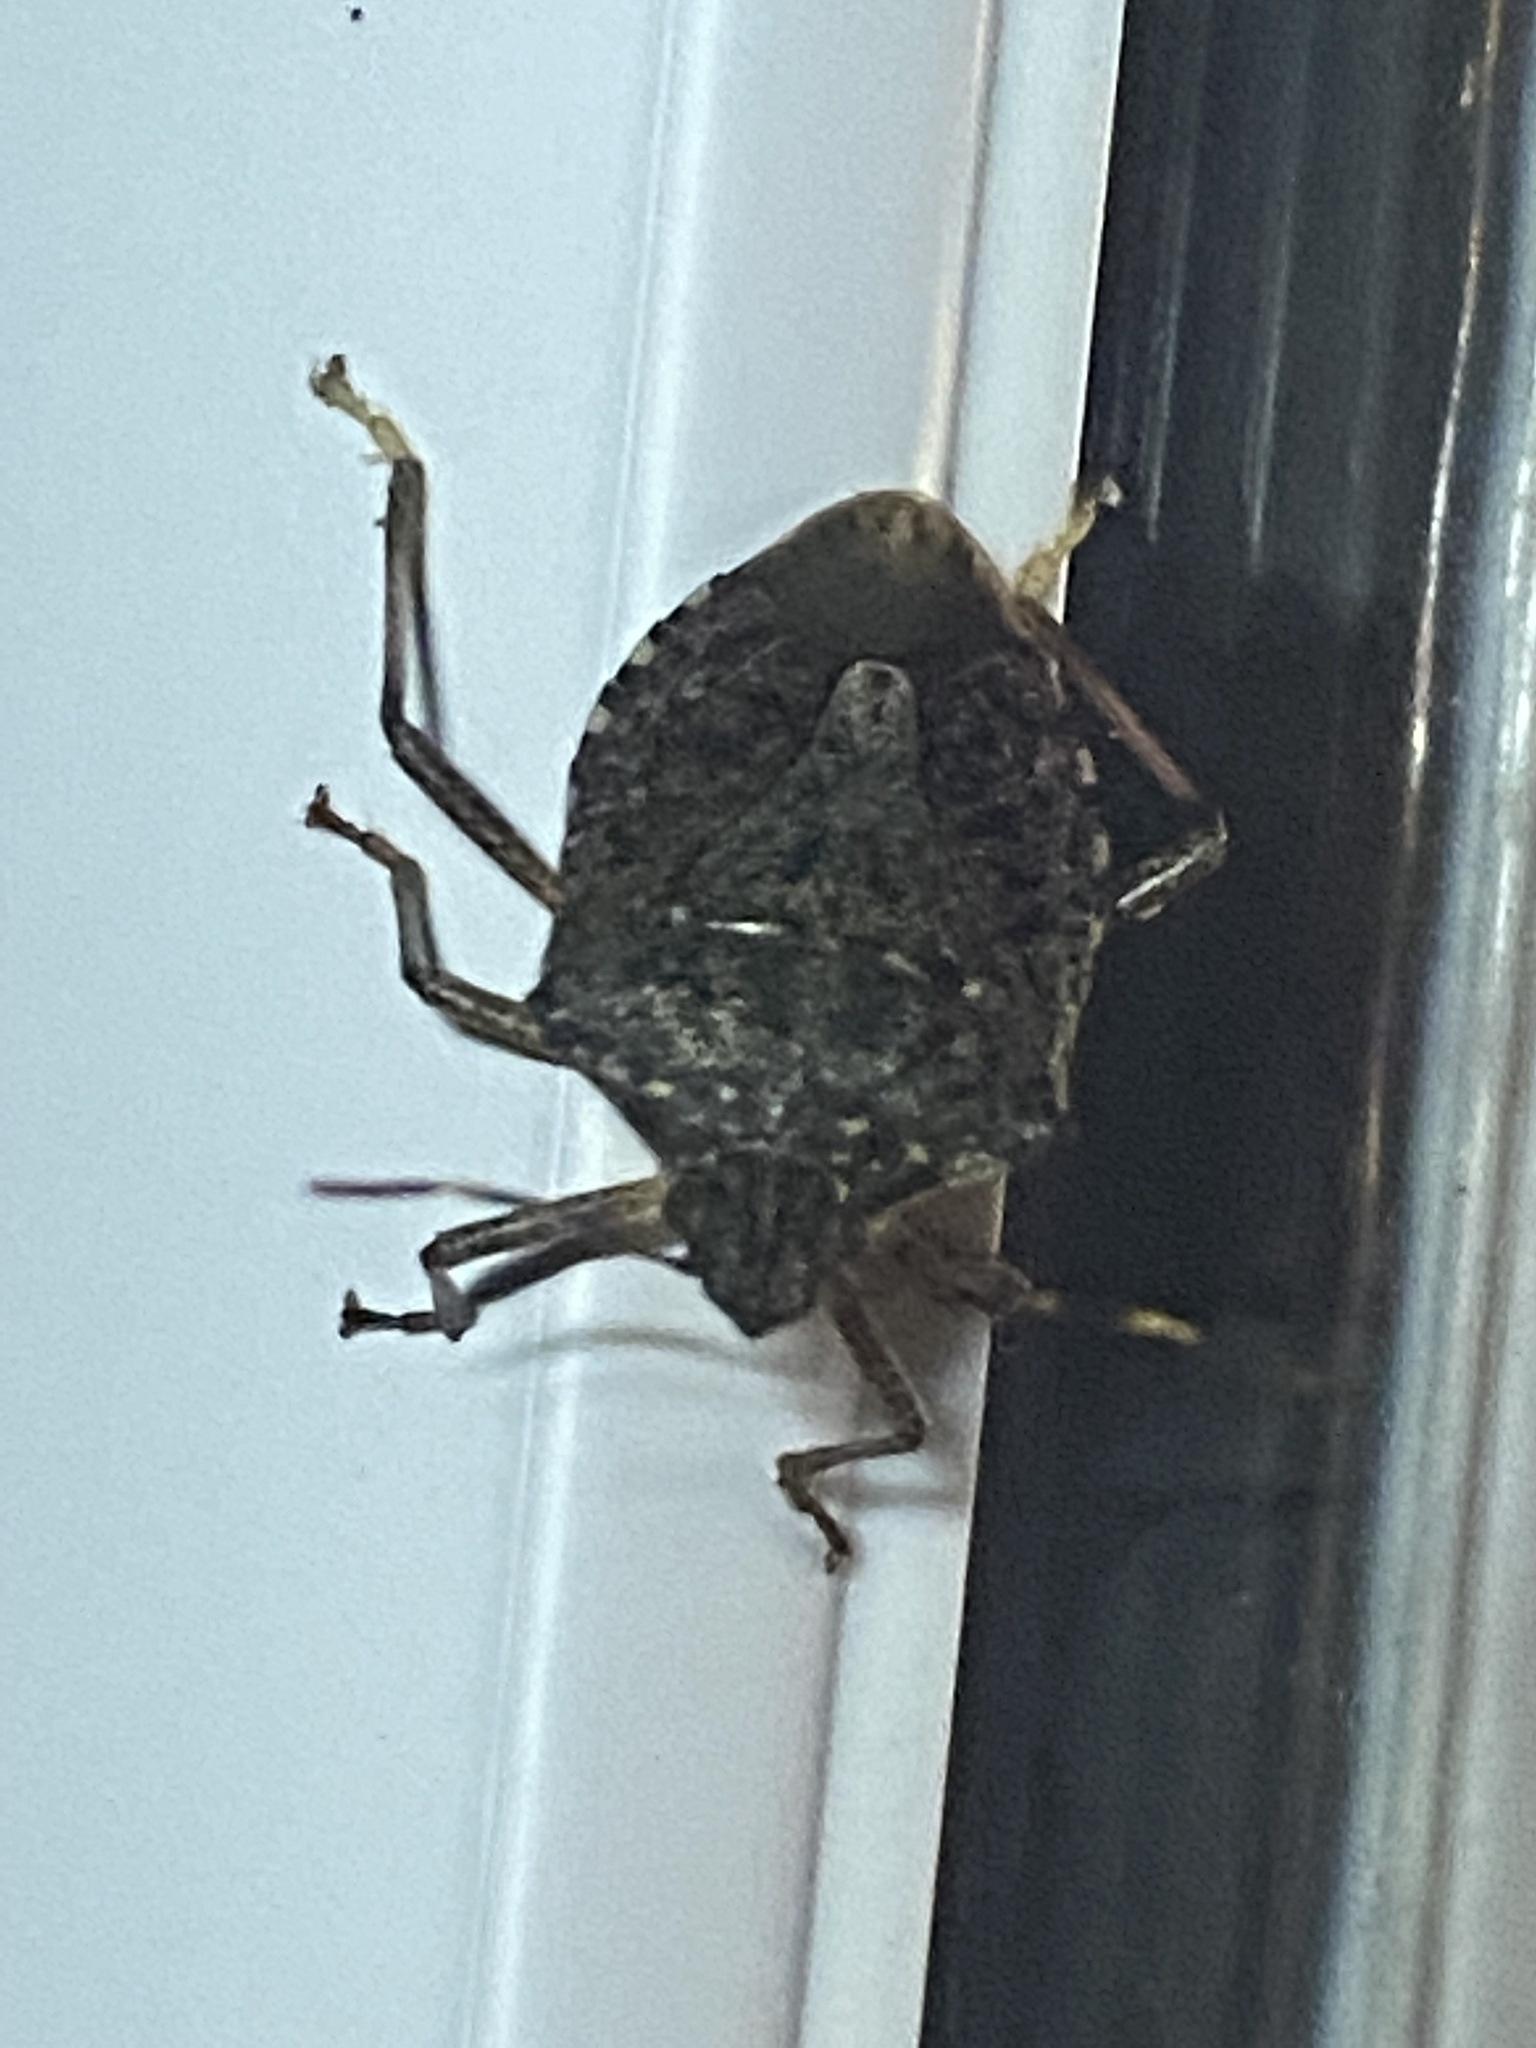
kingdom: Animalia
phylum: Arthropoda
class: Insecta
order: Hemiptera
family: Pentatomidae
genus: Halyomorpha
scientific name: Halyomorpha halys
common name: Brown marmorated stink bug
